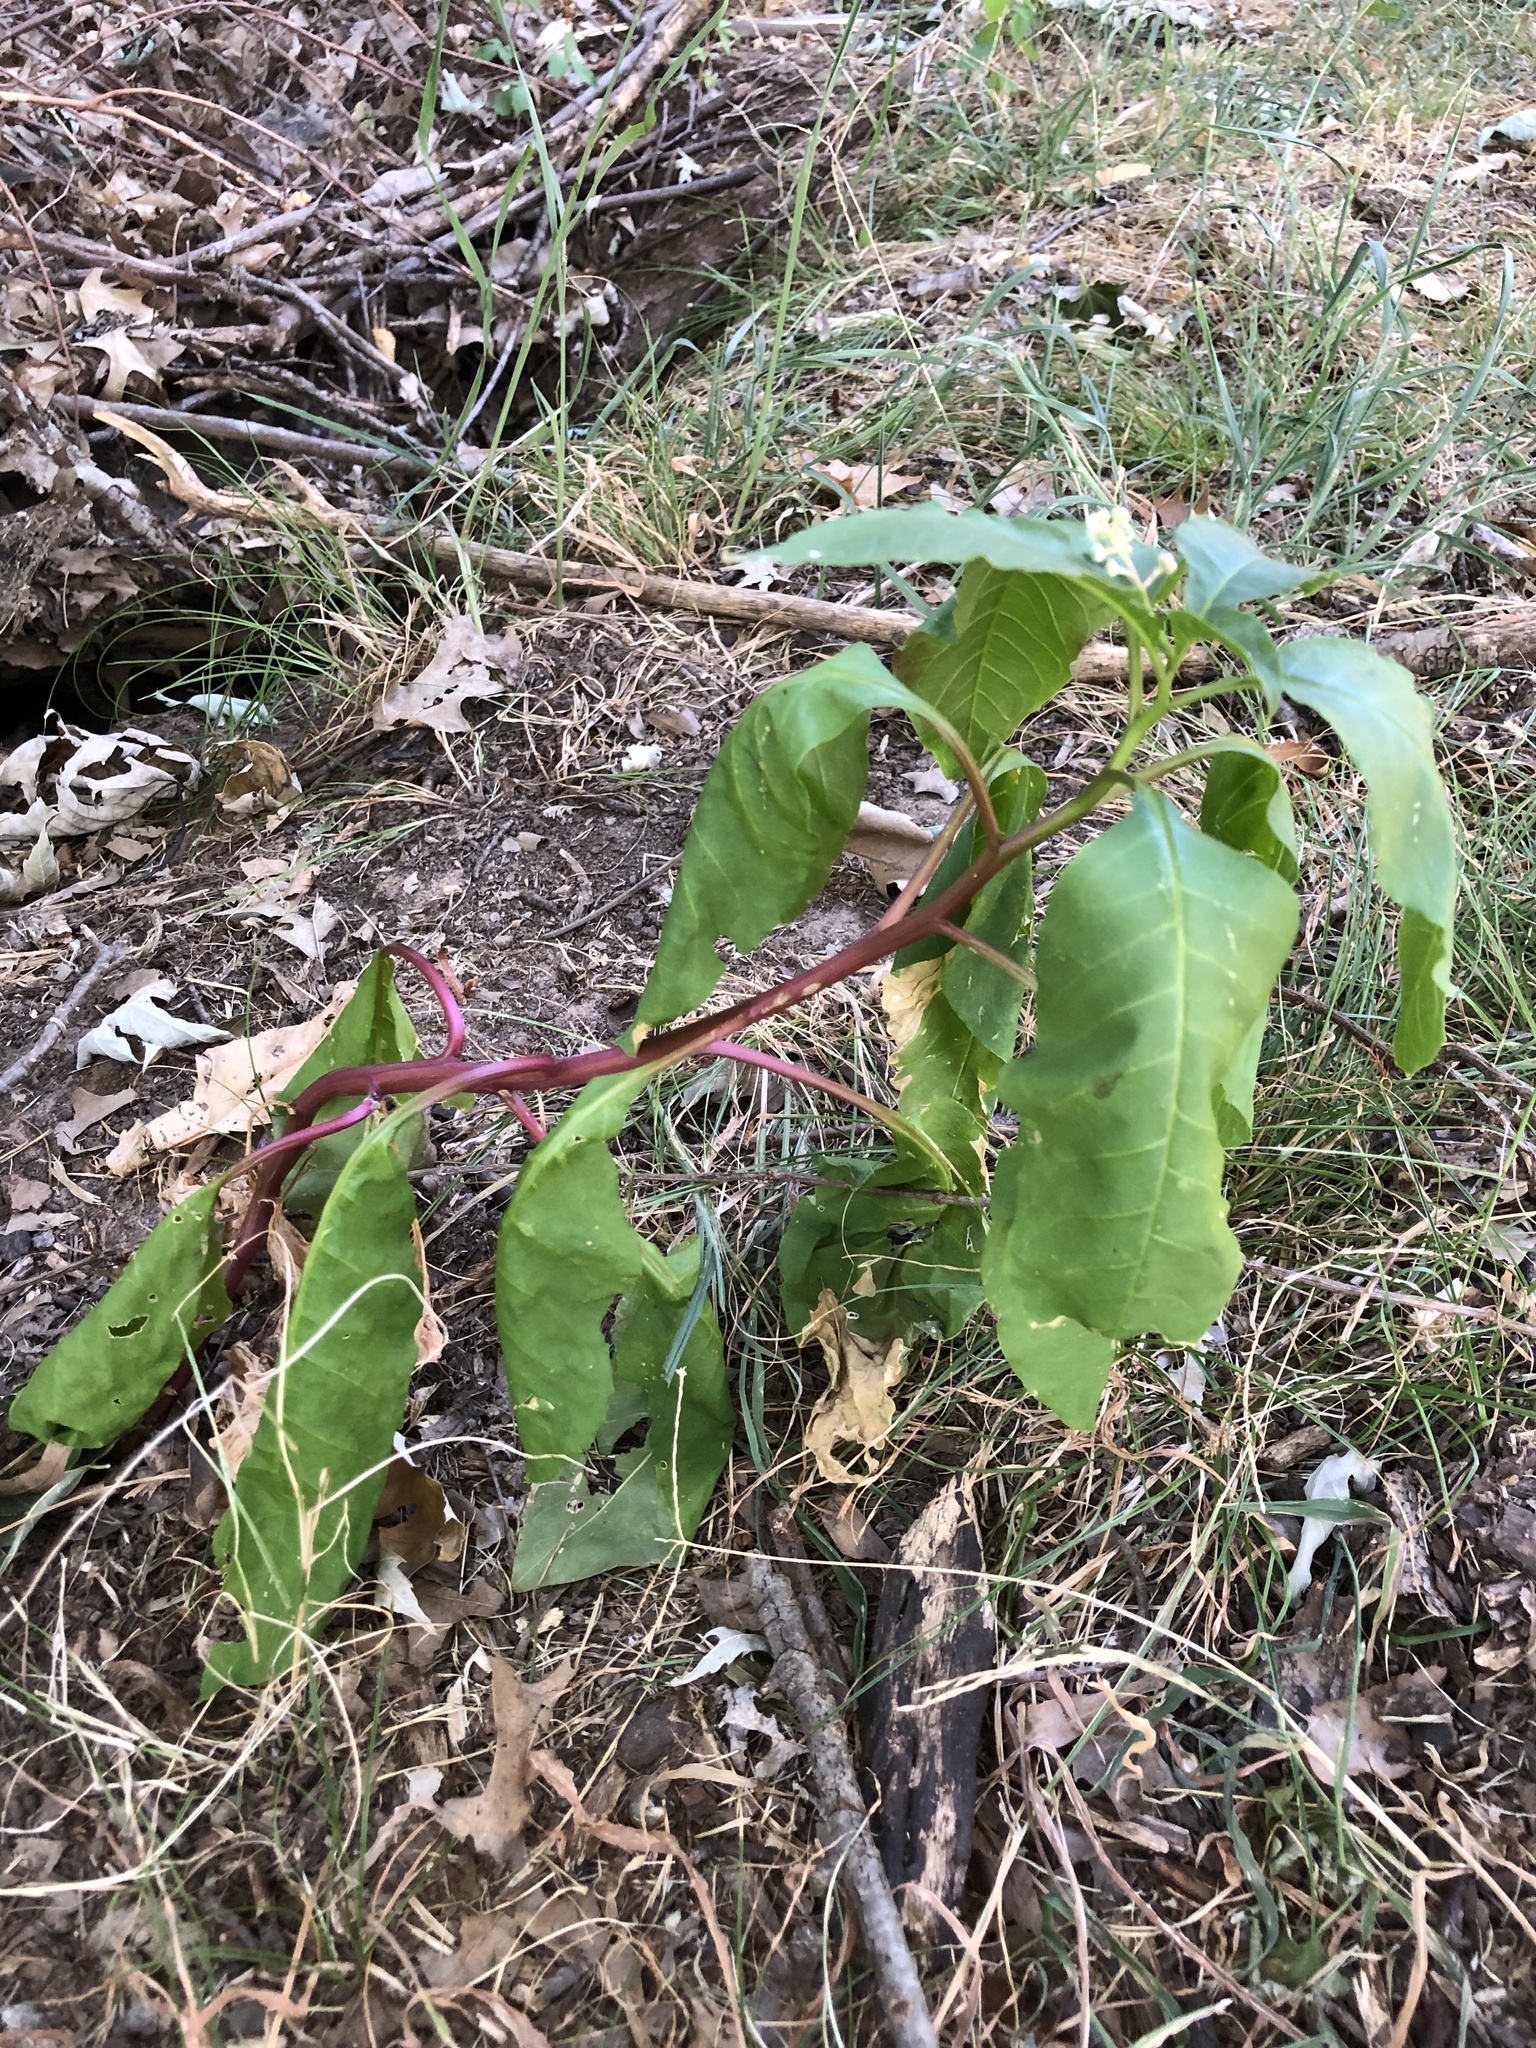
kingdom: Plantae
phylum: Tracheophyta
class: Magnoliopsida
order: Caryophyllales
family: Phytolaccaceae
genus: Phytolacca
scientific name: Phytolacca americana
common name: American pokeweed
